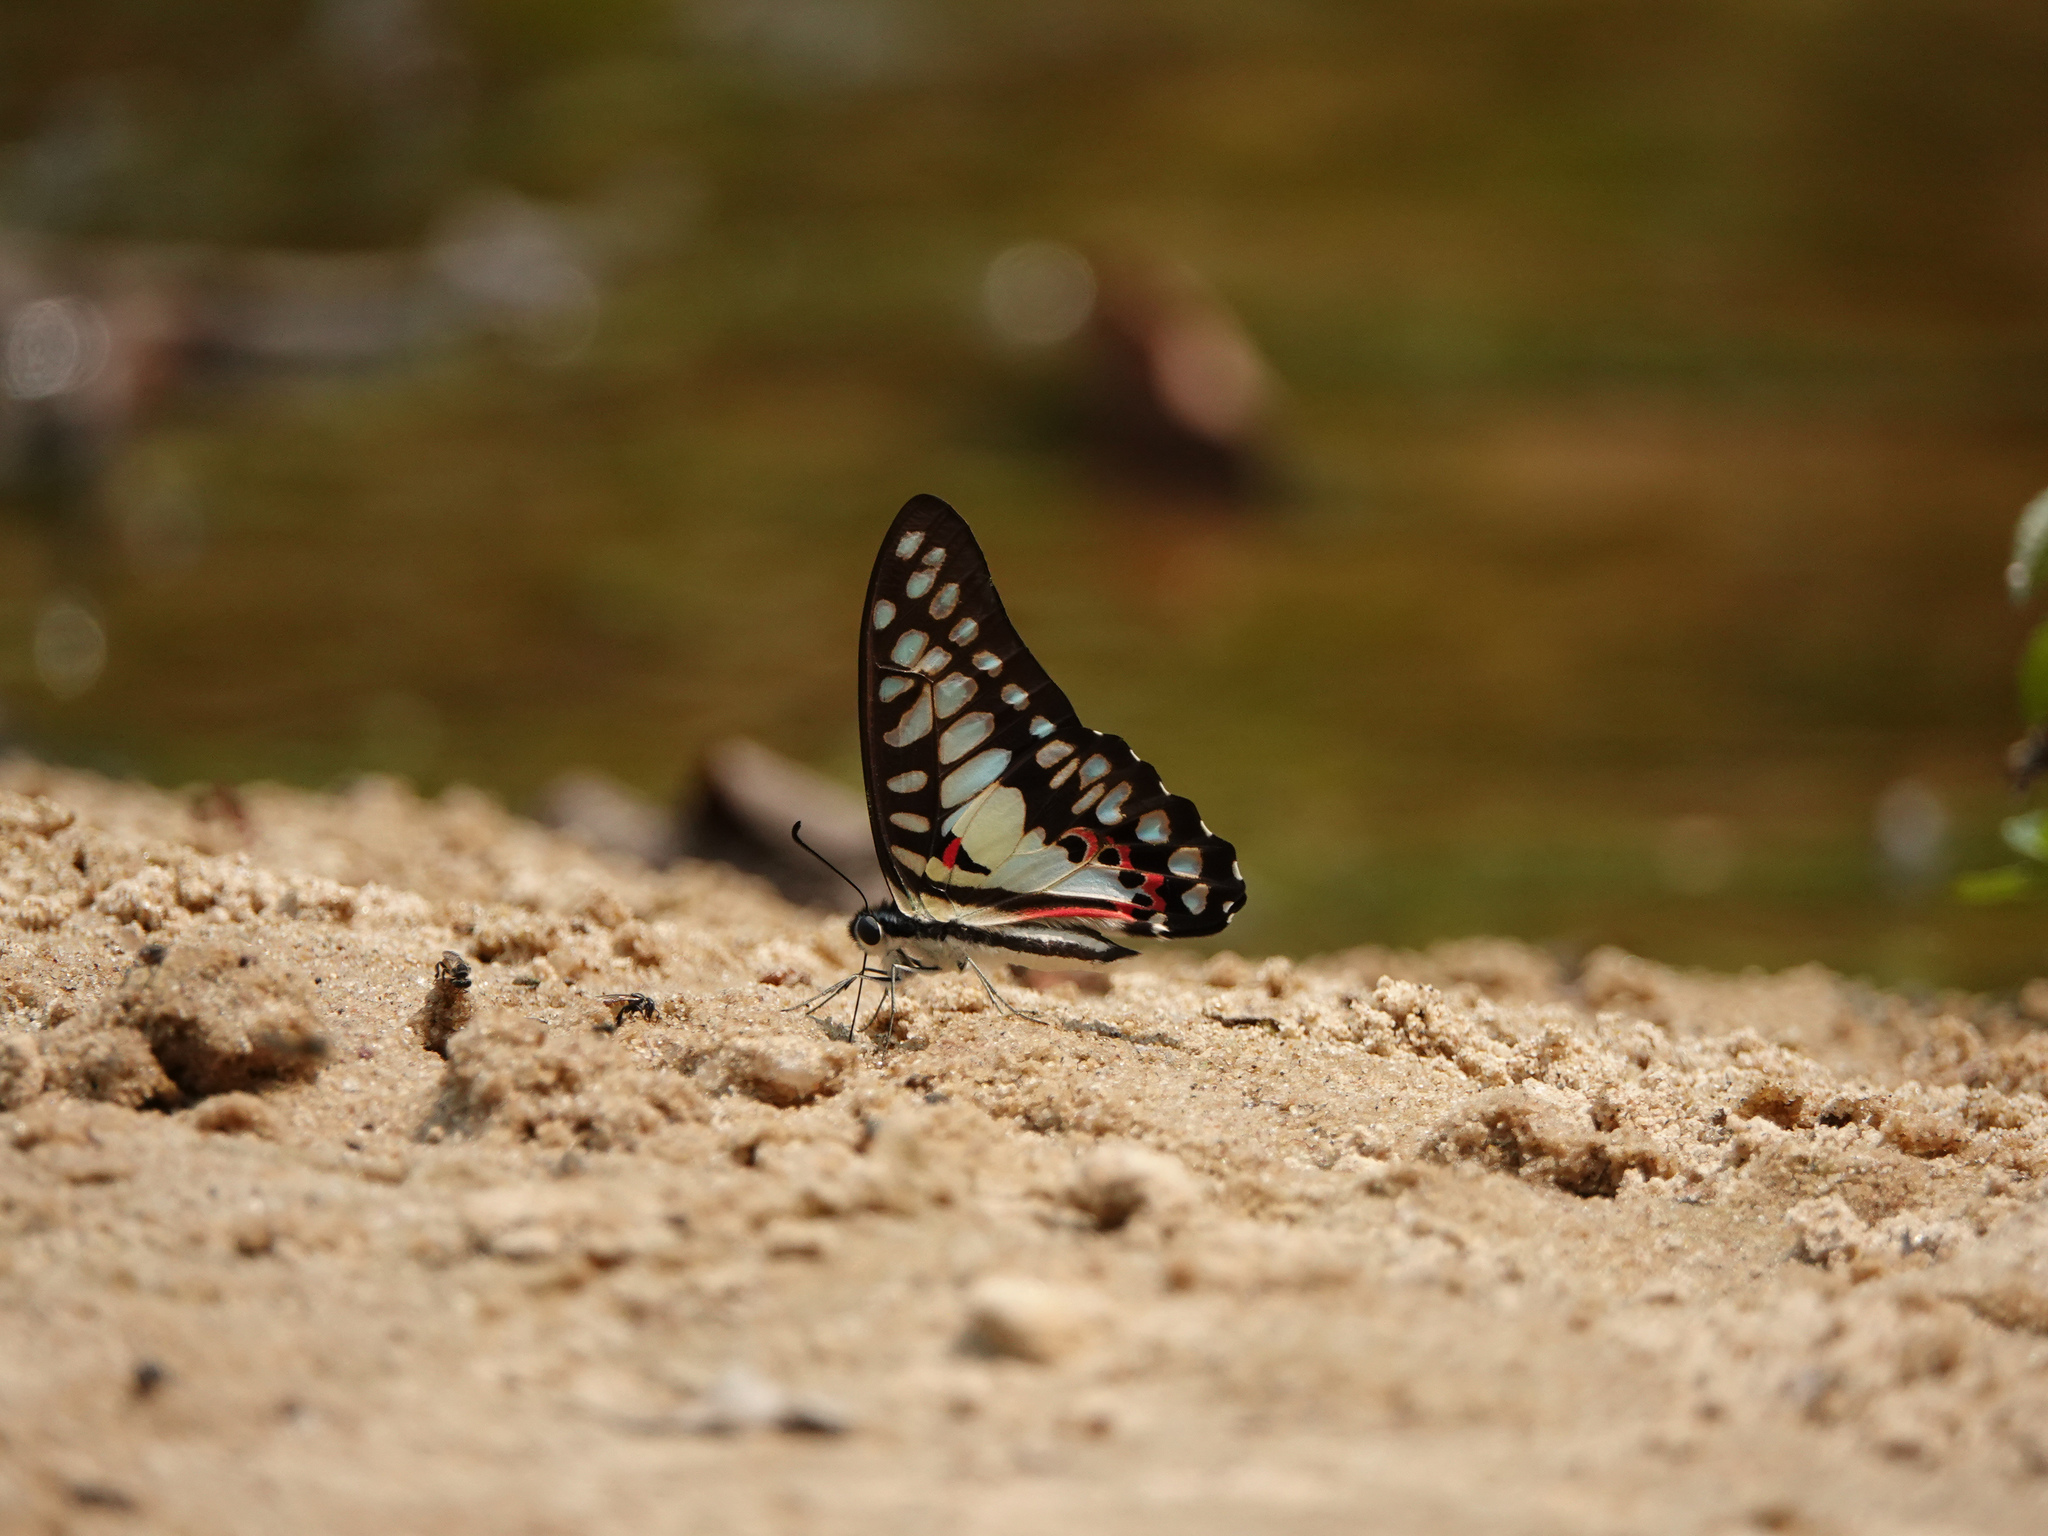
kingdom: Animalia
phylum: Arthropoda
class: Insecta
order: Lepidoptera
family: Papilionidae
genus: Graphium
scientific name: Graphium doson
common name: Common jay
